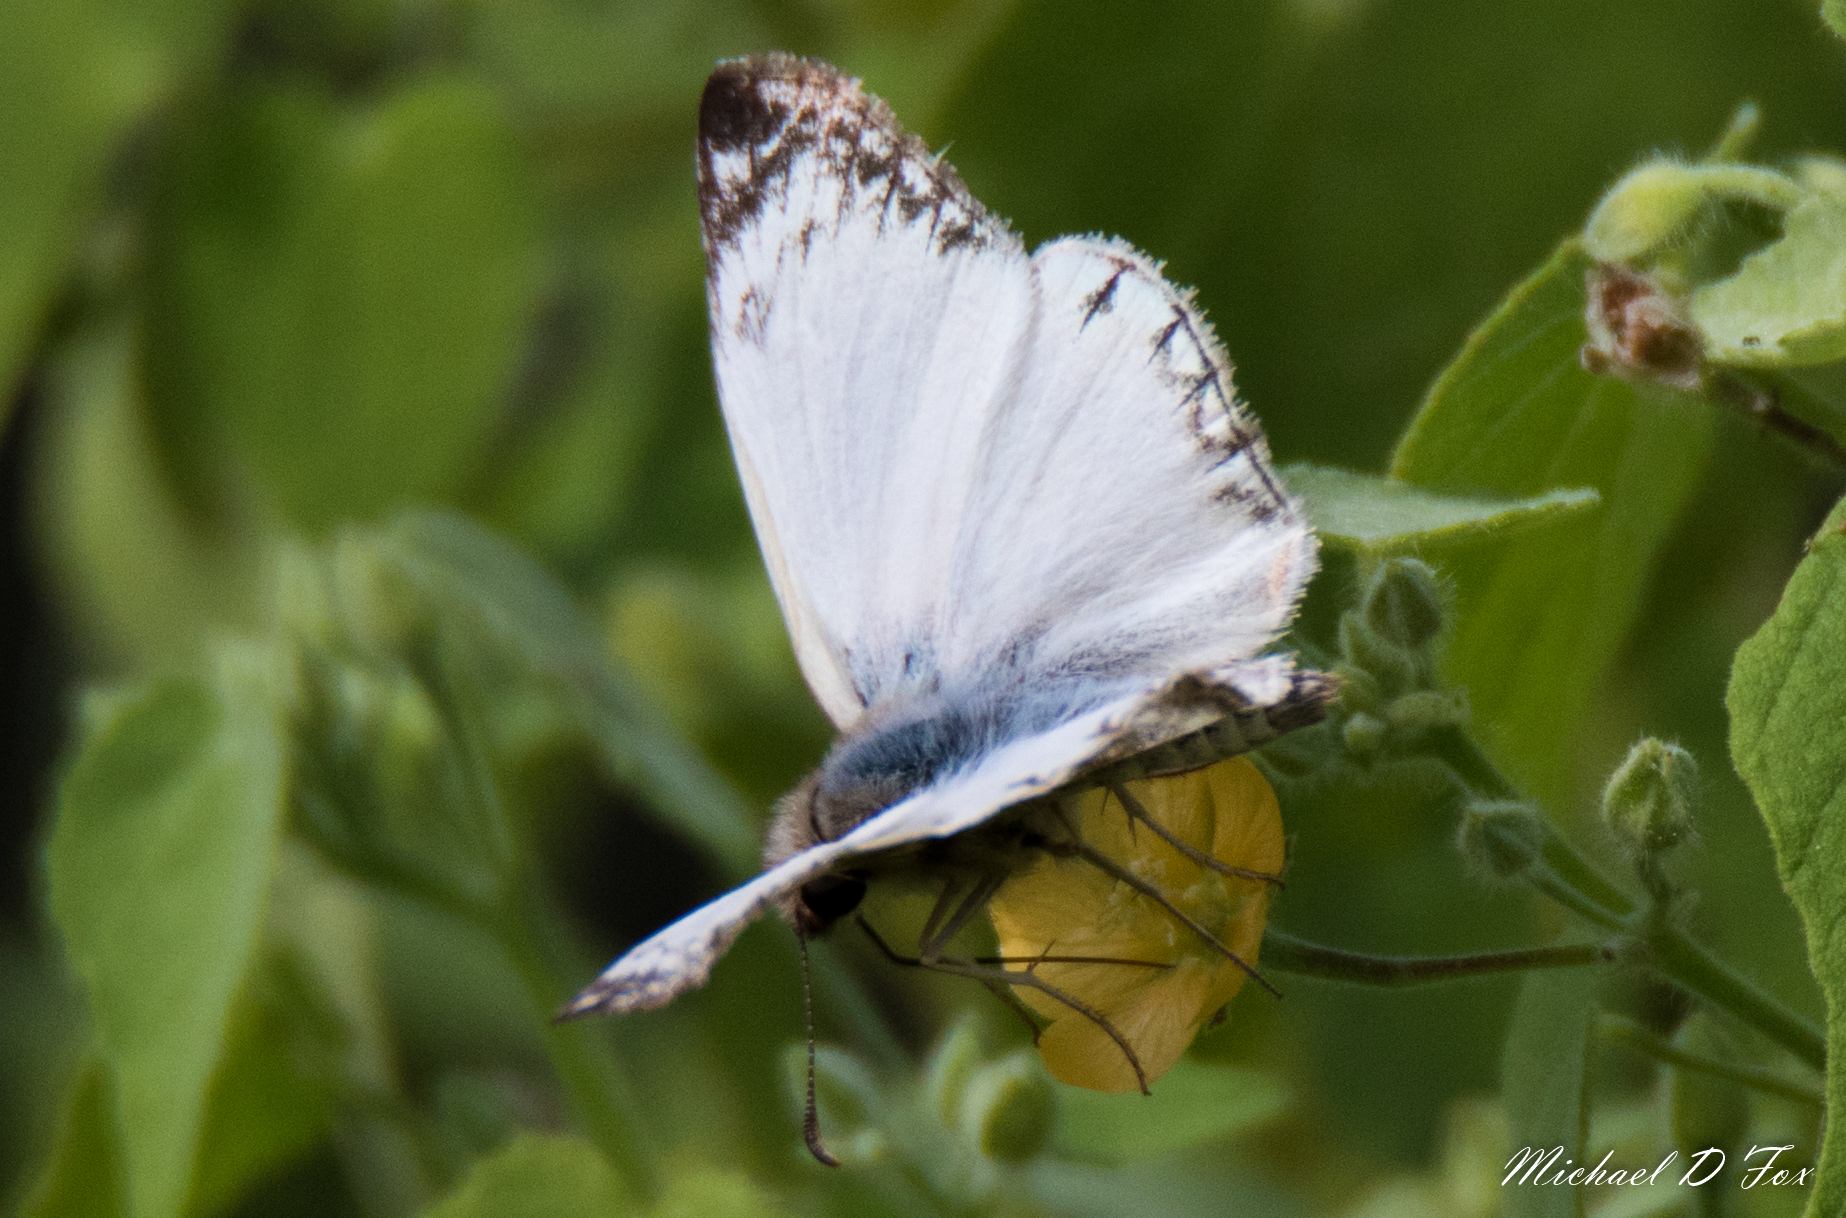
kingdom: Animalia
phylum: Arthropoda
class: Insecta
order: Lepidoptera
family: Hesperiidae
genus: Heliopetes
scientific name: Heliopetes laviana
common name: Laviana white-skipper
